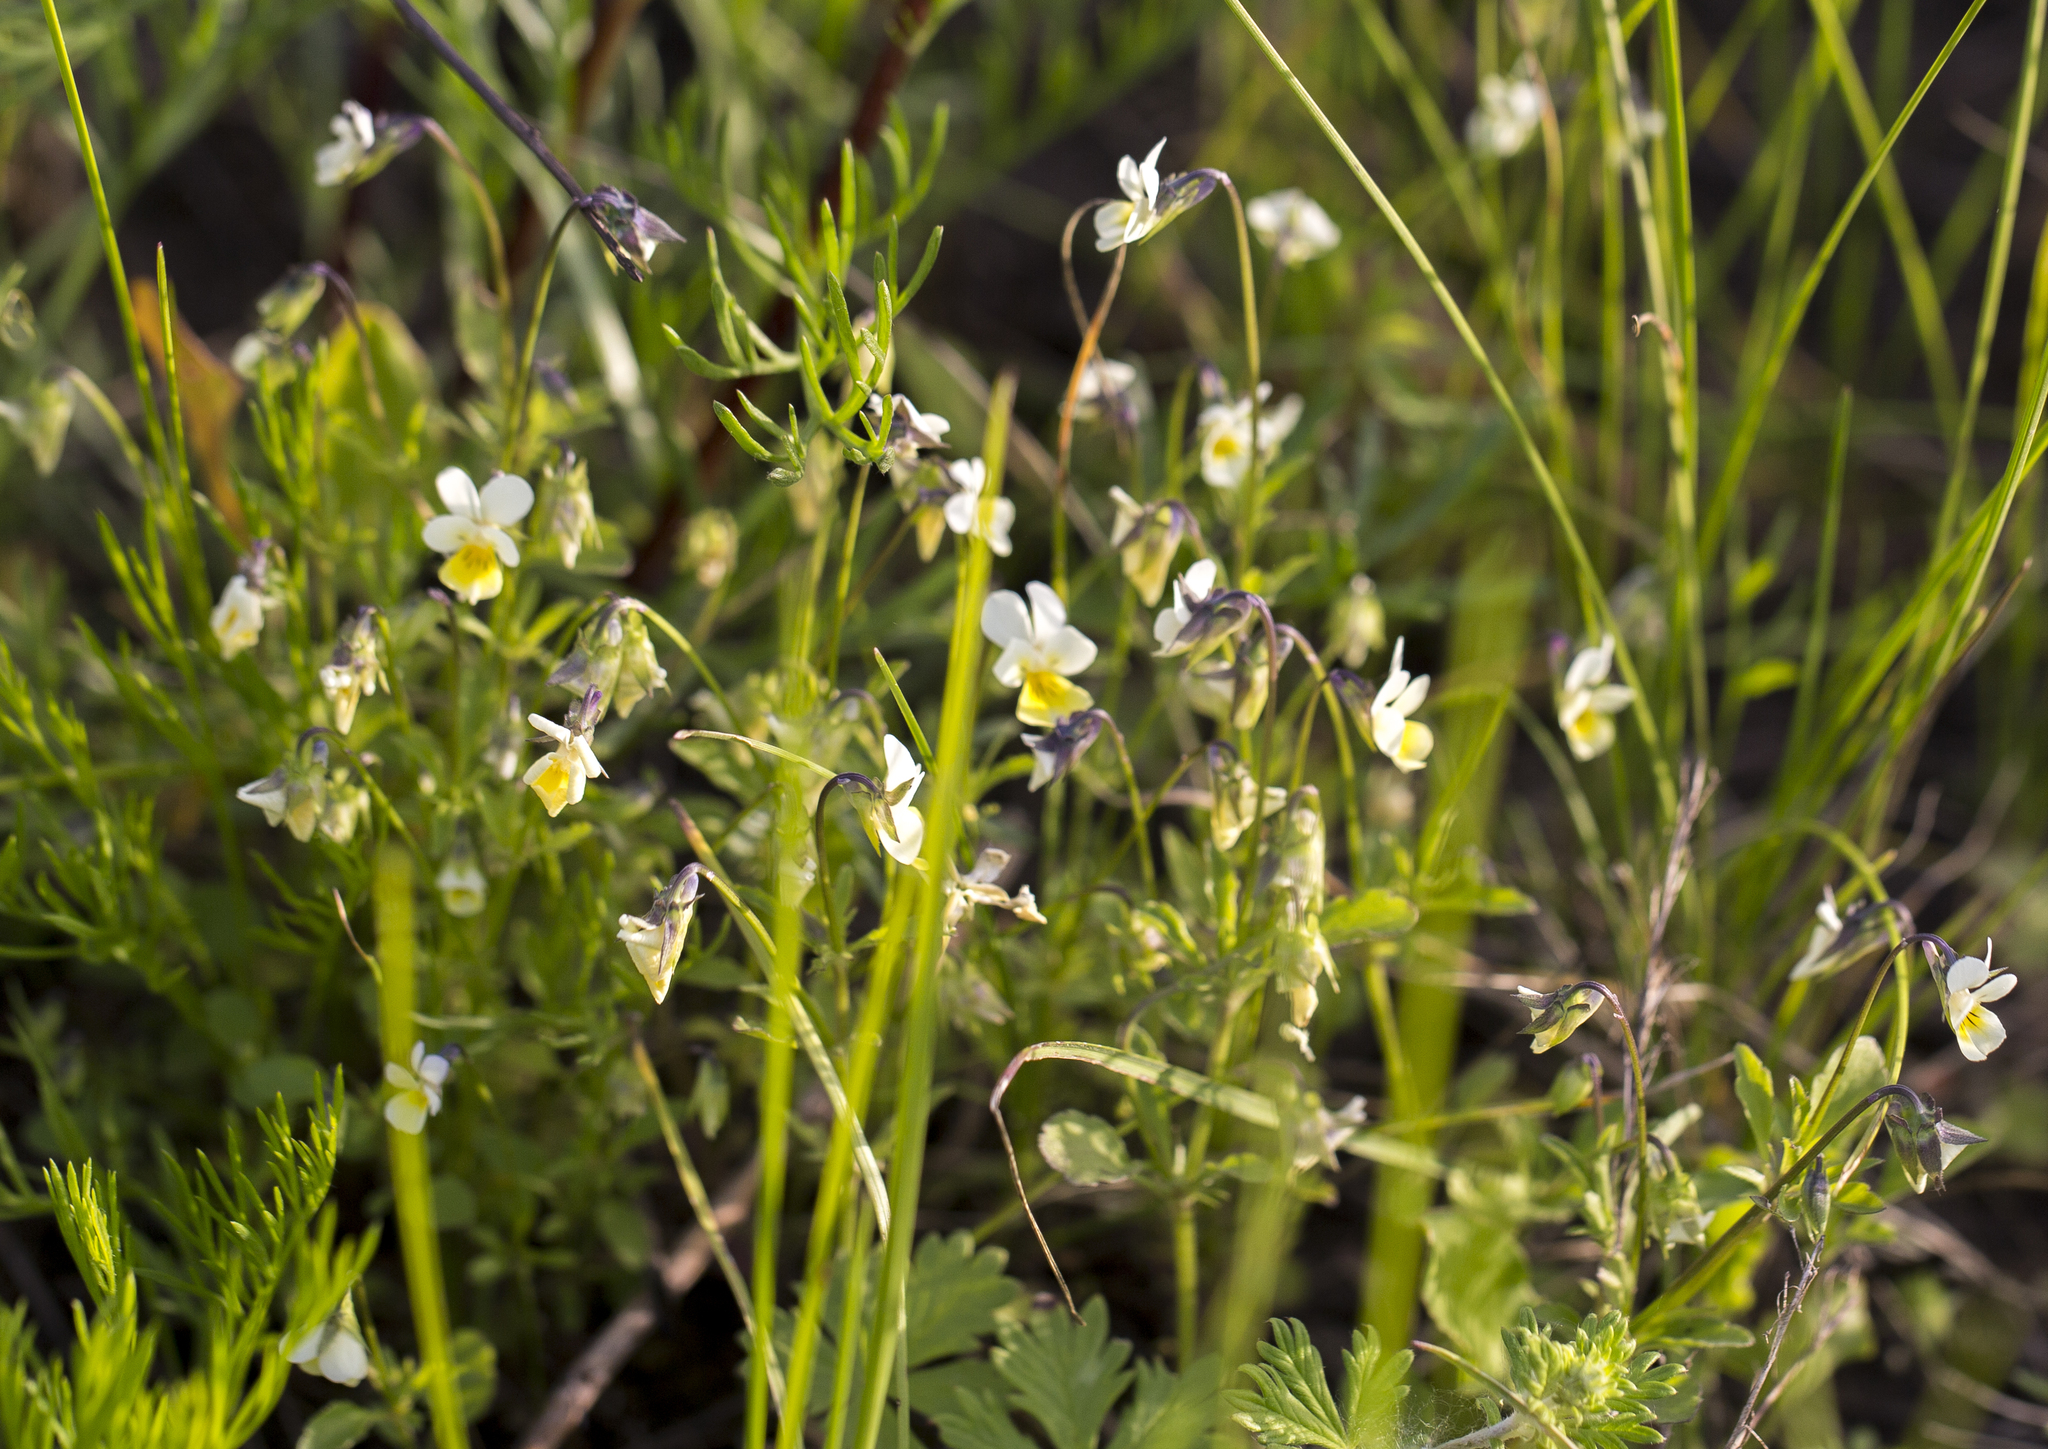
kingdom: Plantae
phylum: Tracheophyta
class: Magnoliopsida
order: Malpighiales
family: Violaceae
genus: Viola
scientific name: Viola arvensis
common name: Field pansy
